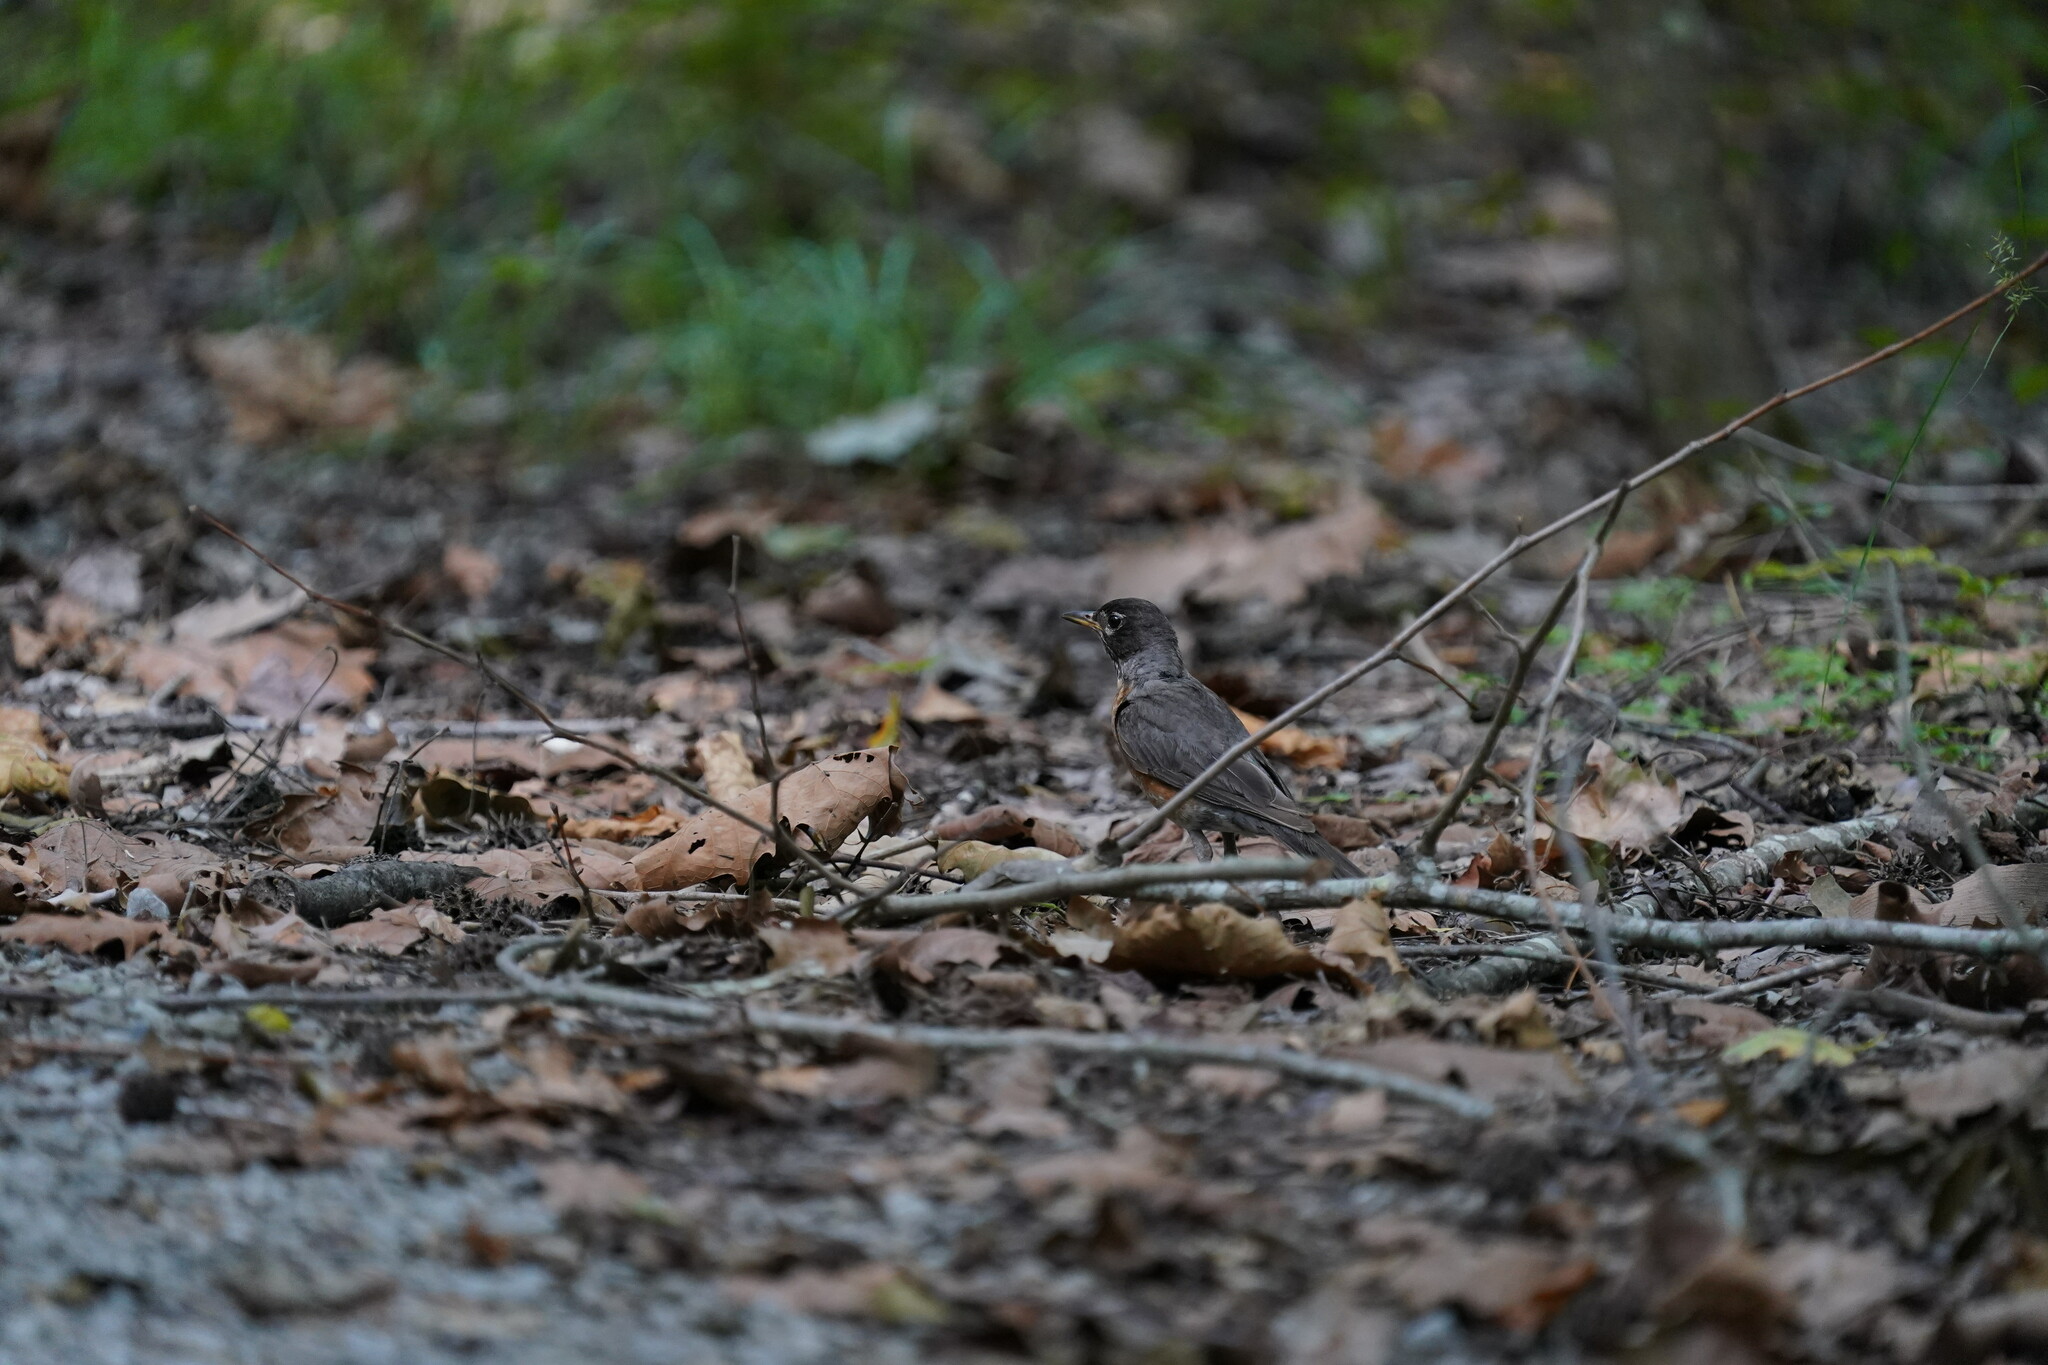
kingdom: Animalia
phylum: Chordata
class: Aves
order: Passeriformes
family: Turdidae
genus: Turdus
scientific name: Turdus migratorius
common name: American robin
